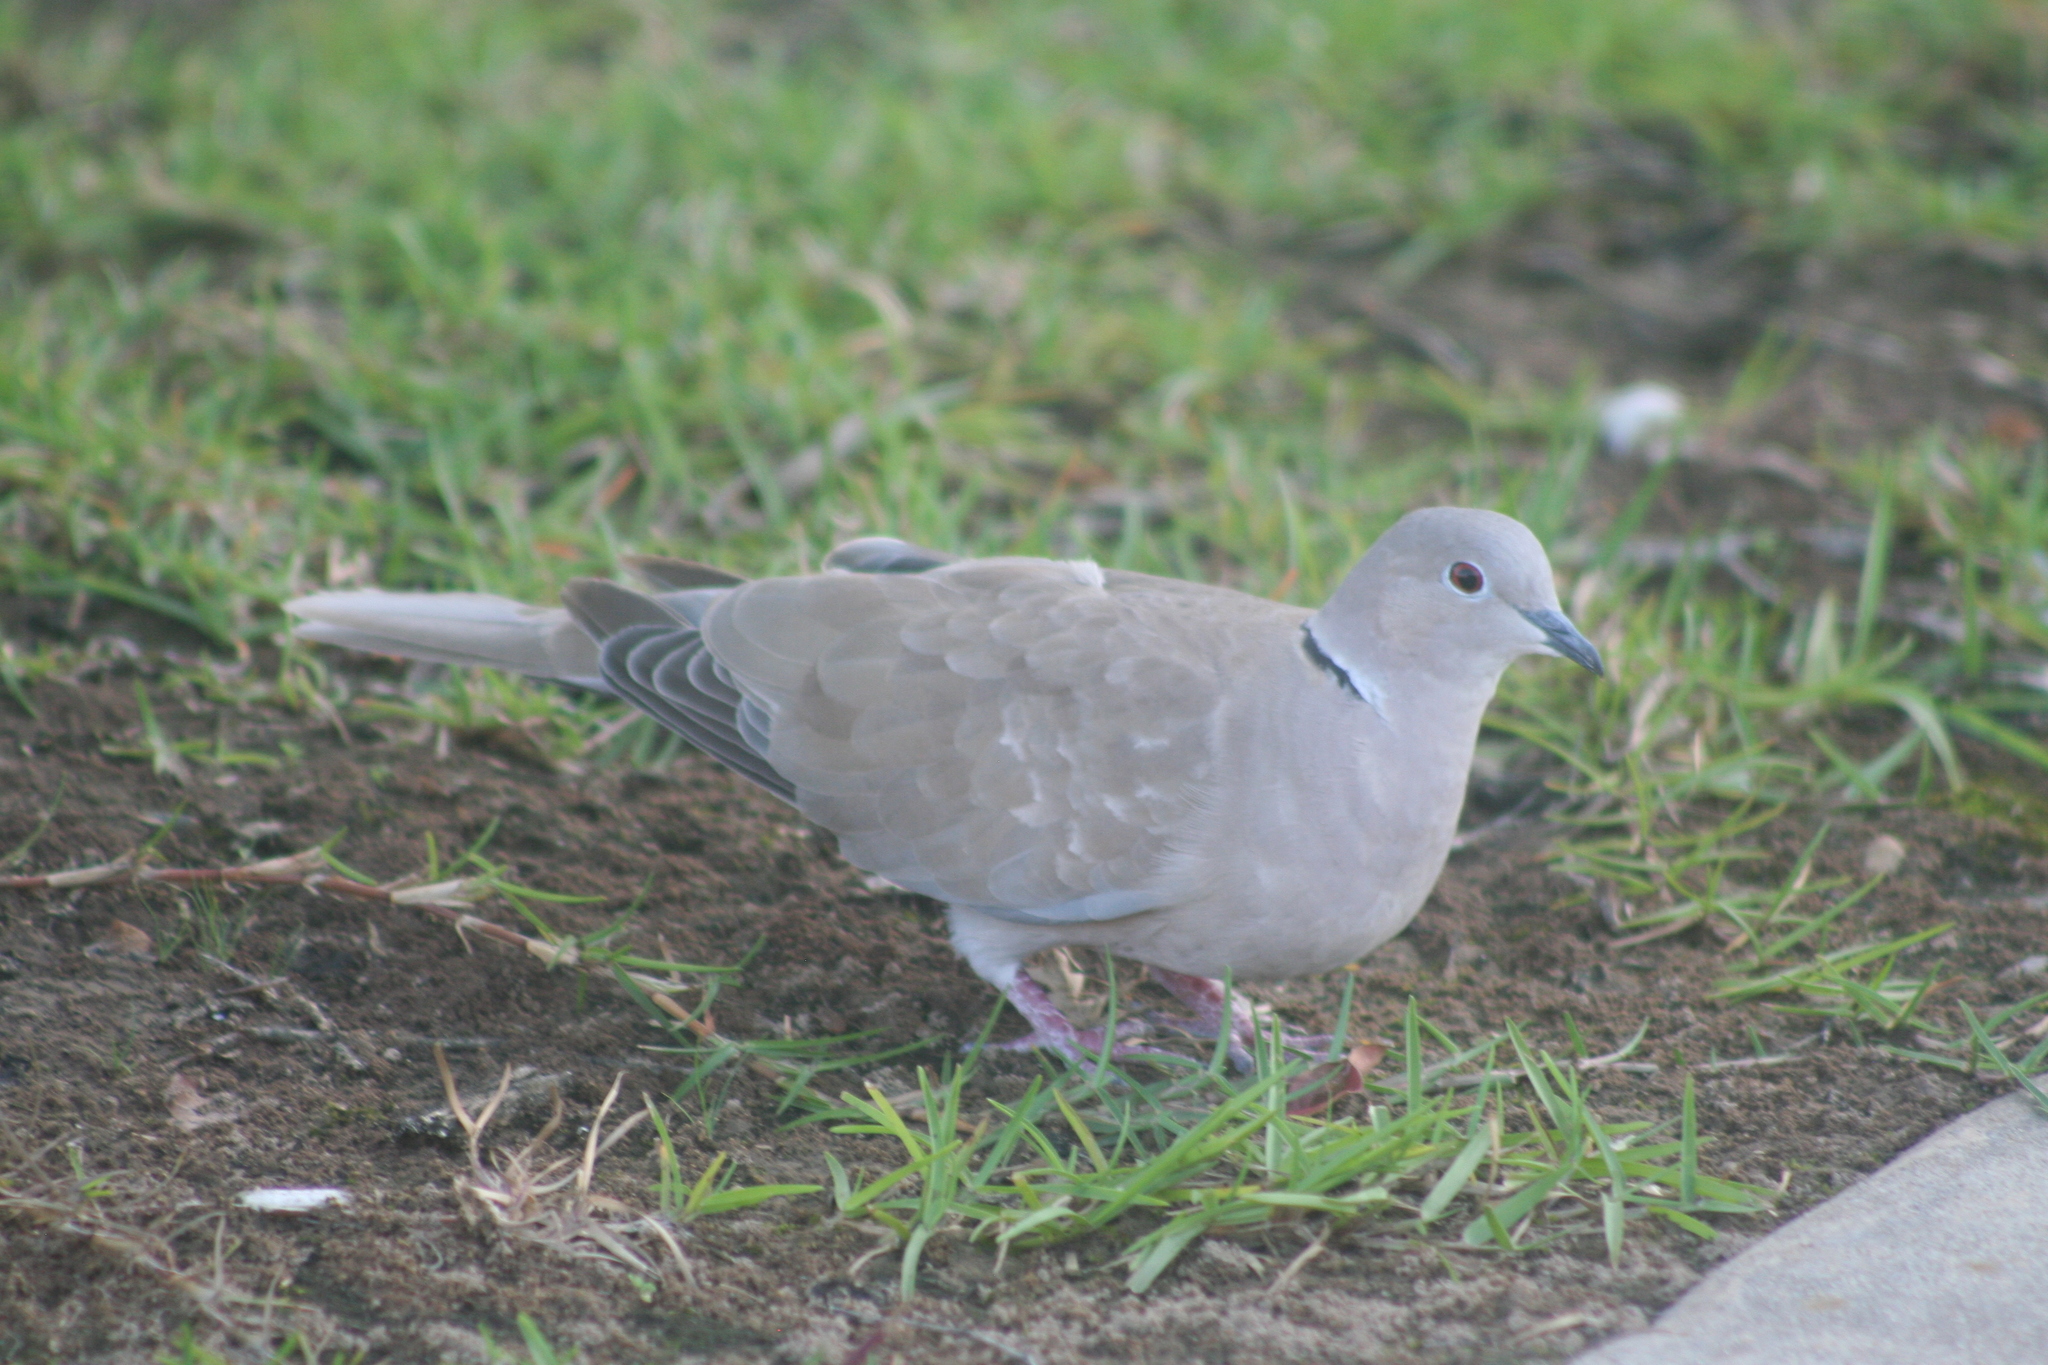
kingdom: Animalia
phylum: Chordata
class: Aves
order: Columbiformes
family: Columbidae
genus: Streptopelia
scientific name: Streptopelia decaocto
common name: Eurasian collared dove
